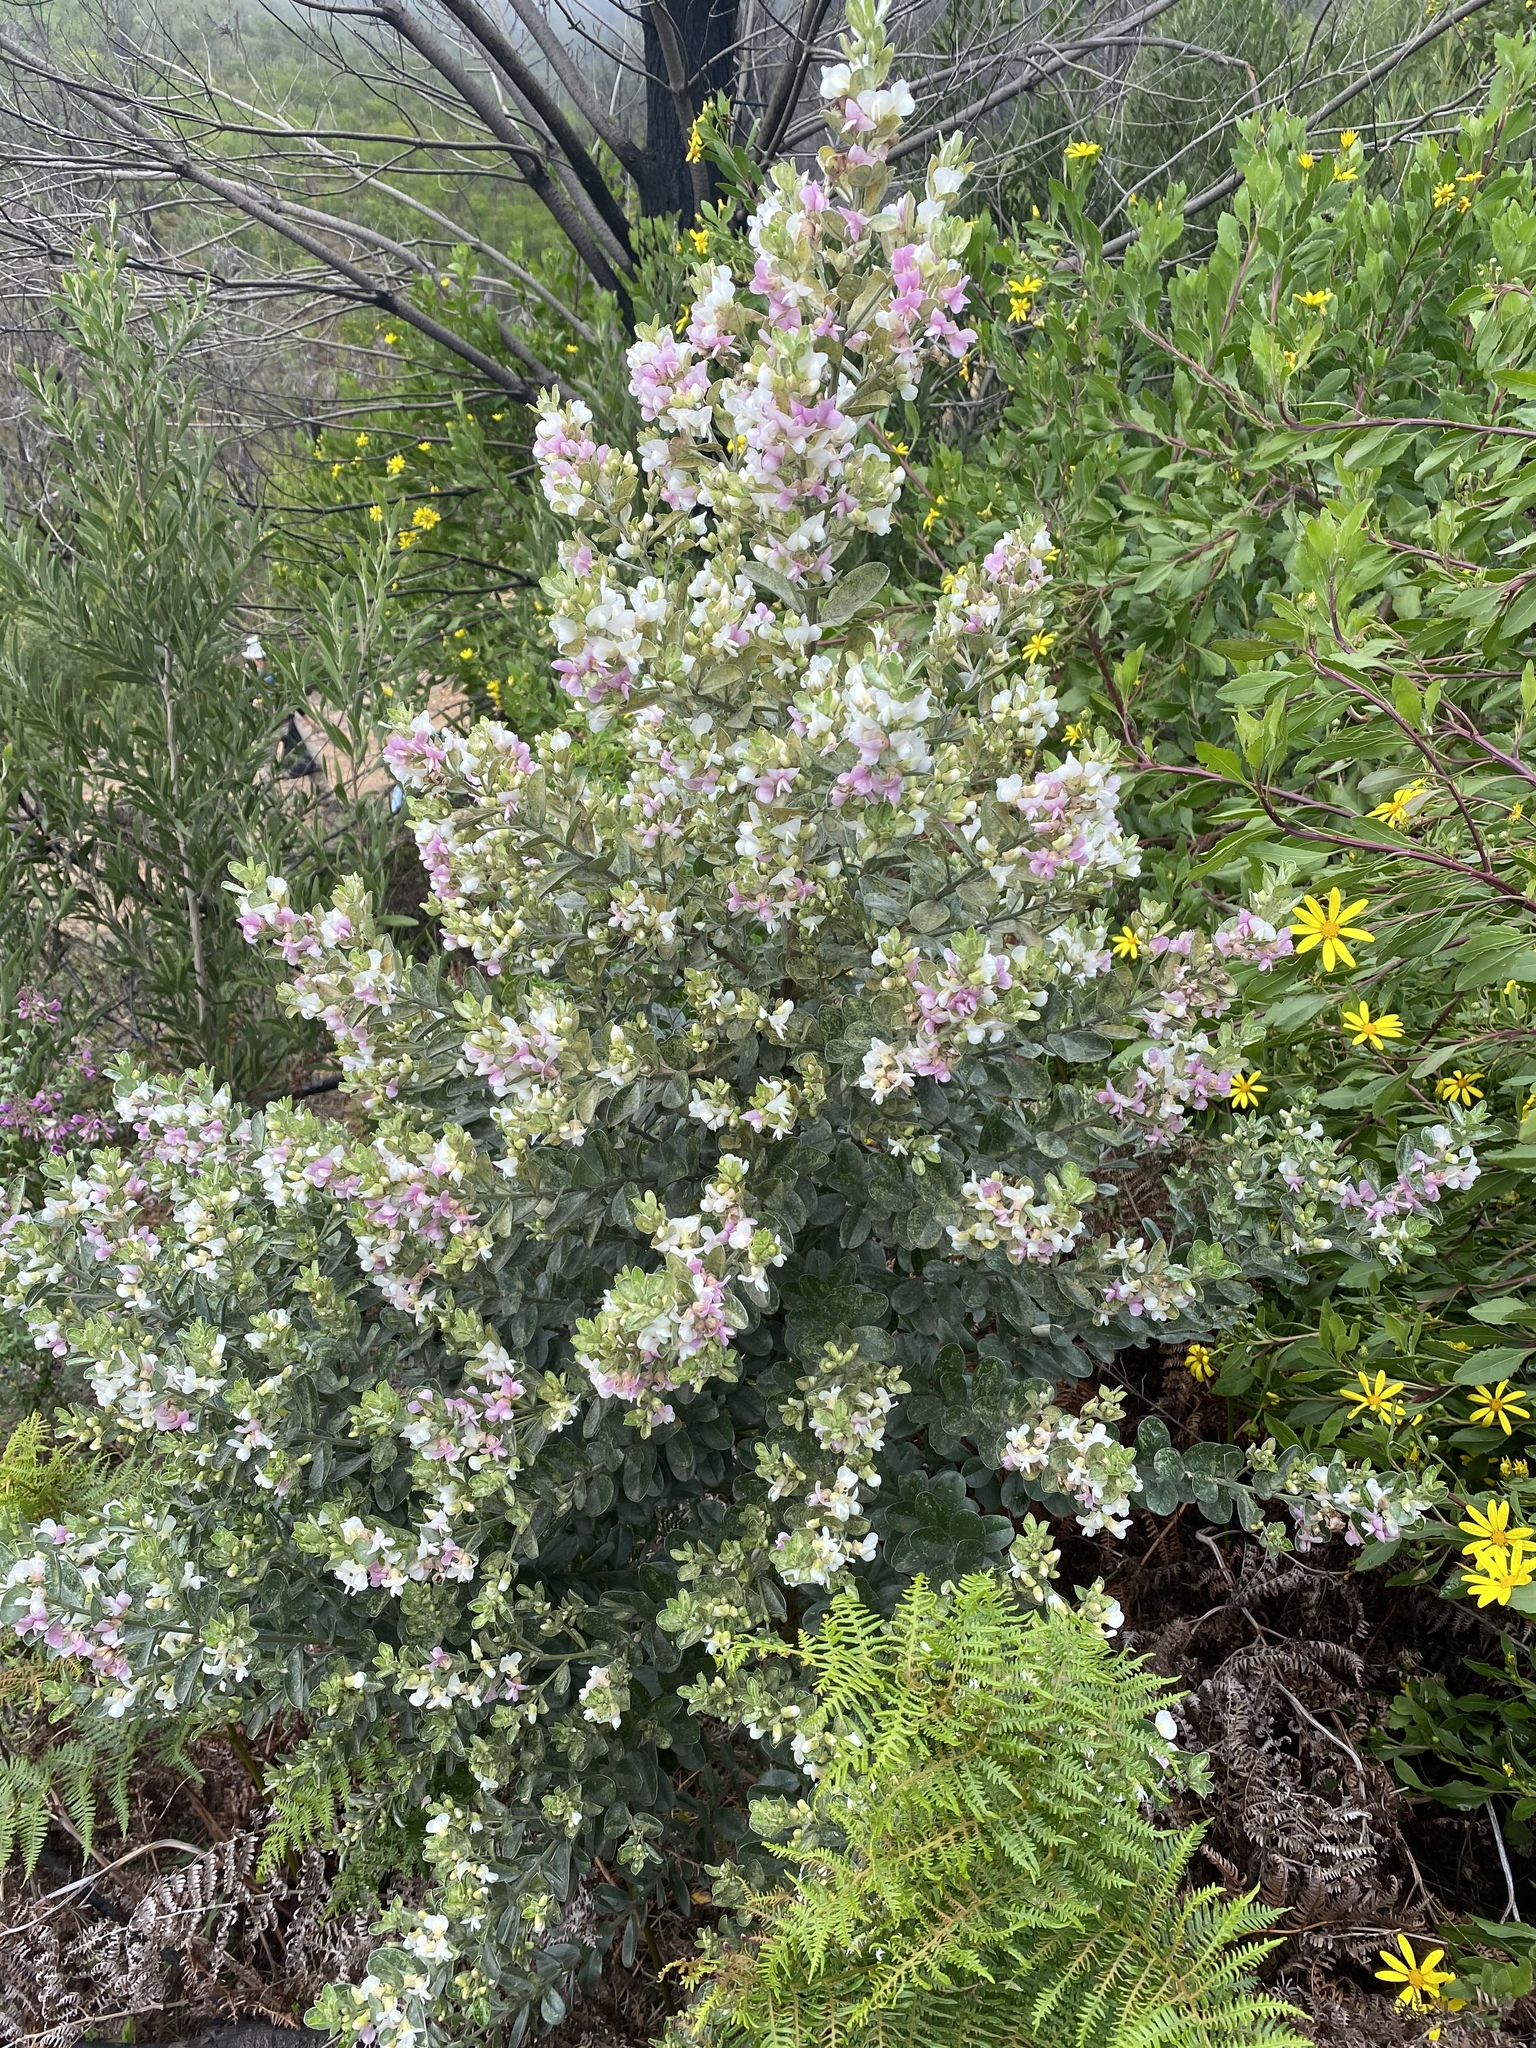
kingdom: Plantae
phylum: Tracheophyta
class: Magnoliopsida
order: Fabales
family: Fabaceae
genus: Podalyria
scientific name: Podalyria myrtillifolia
